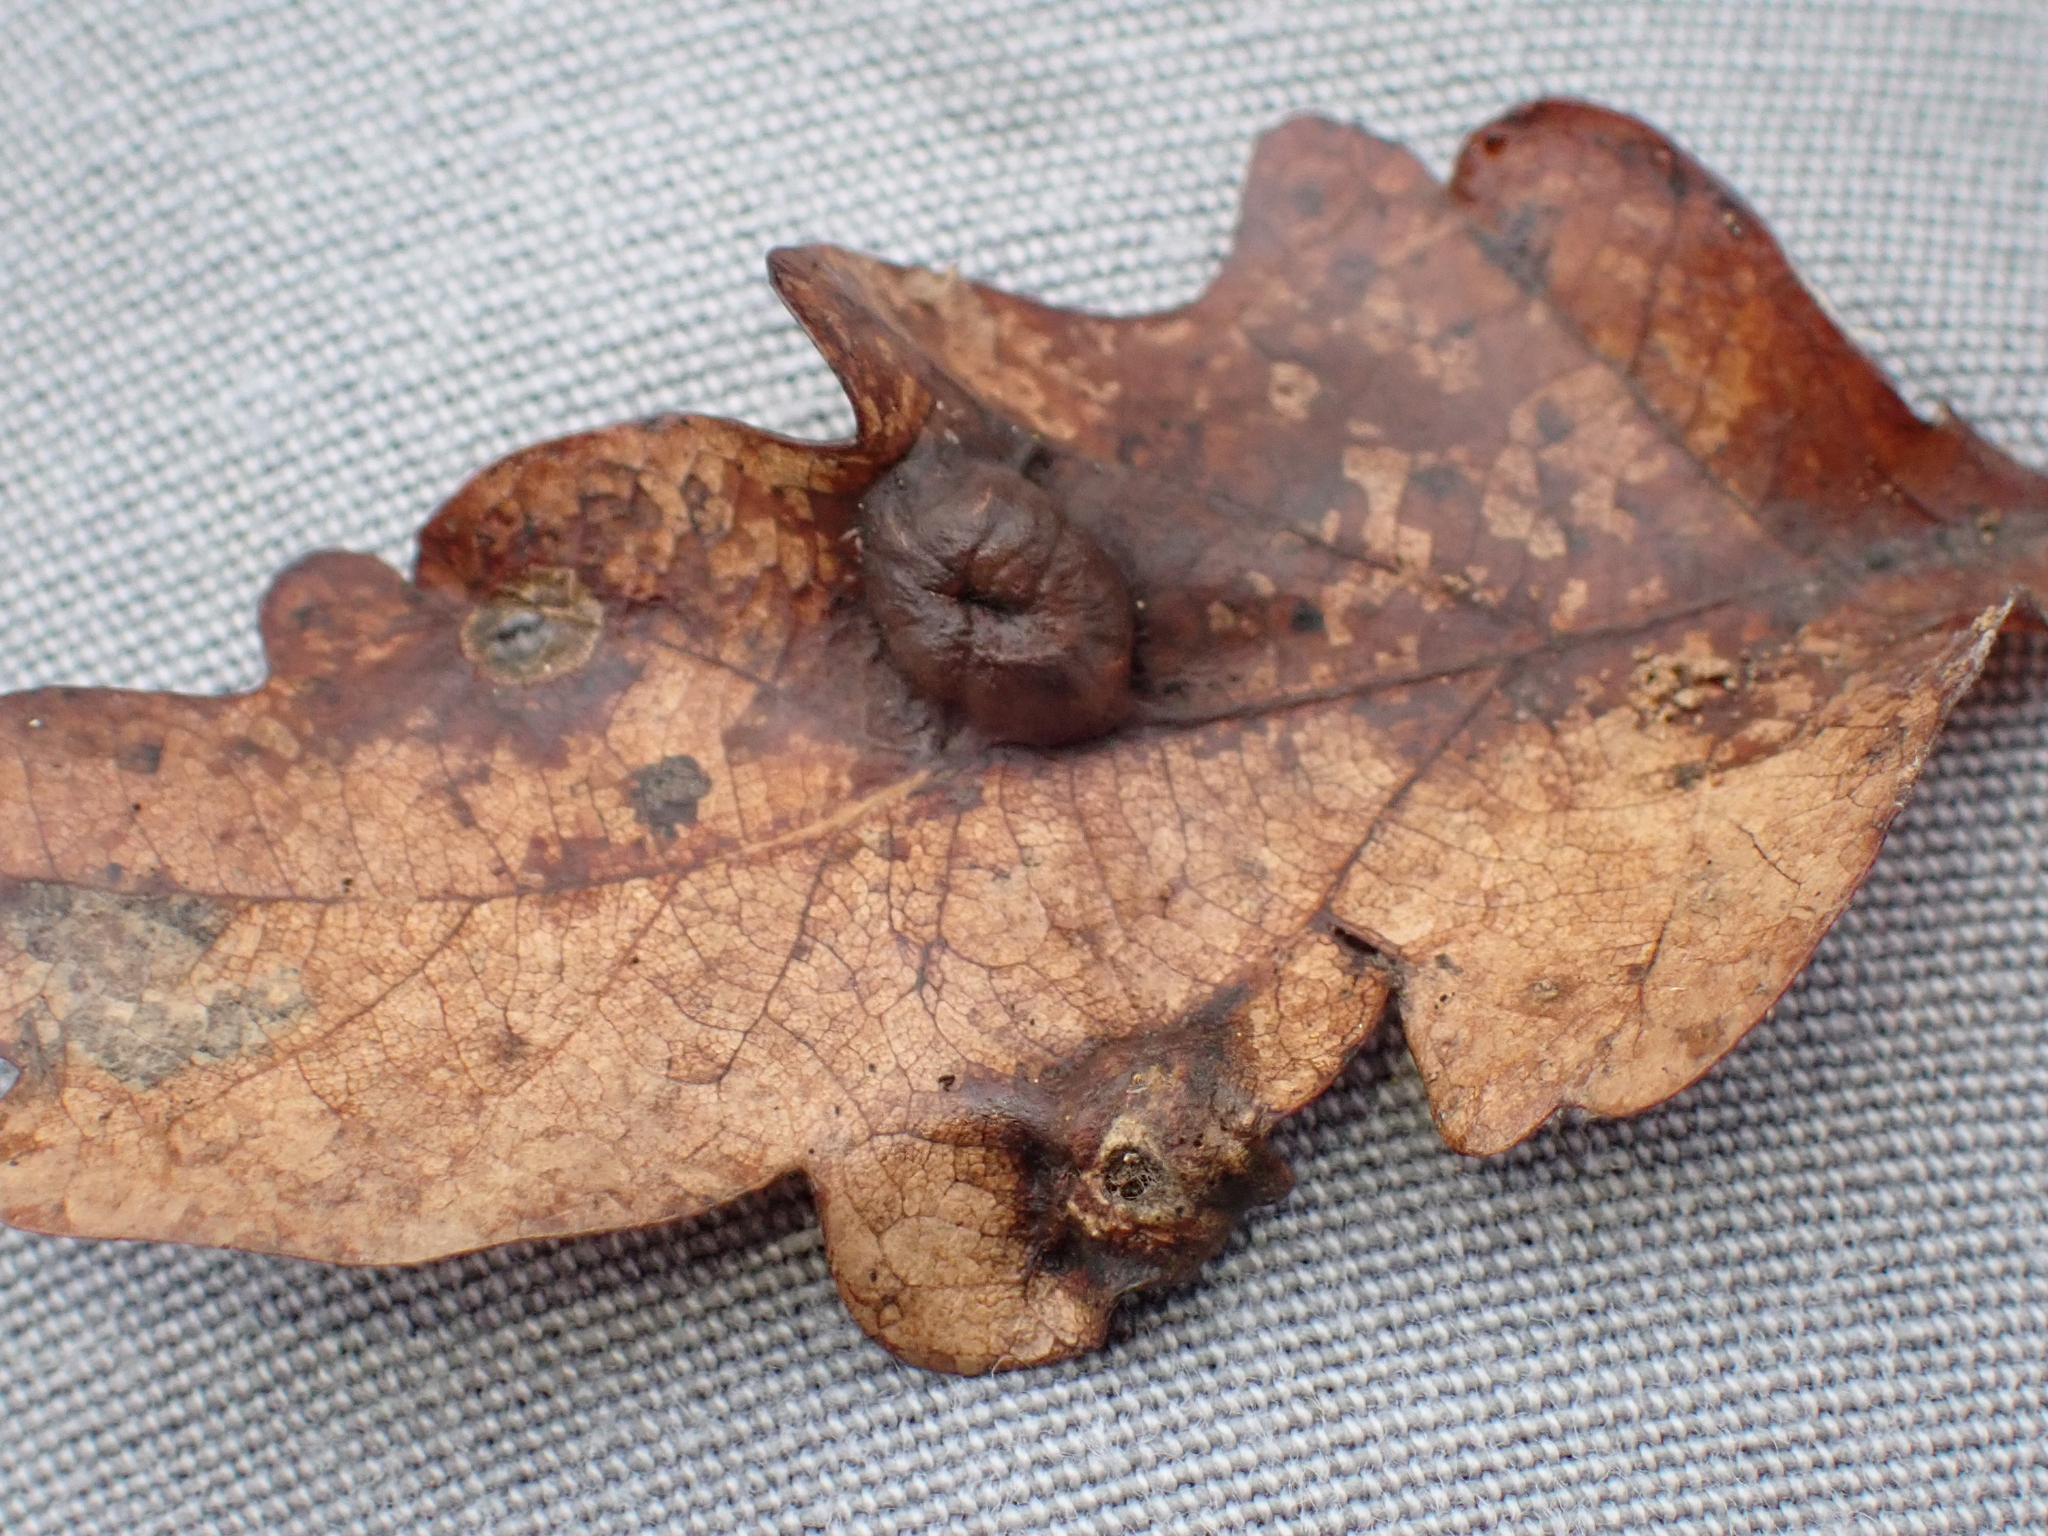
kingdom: Animalia
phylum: Arthropoda
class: Insecta
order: Hymenoptera
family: Cynipidae
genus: Andricus
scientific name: Andricus curvator
